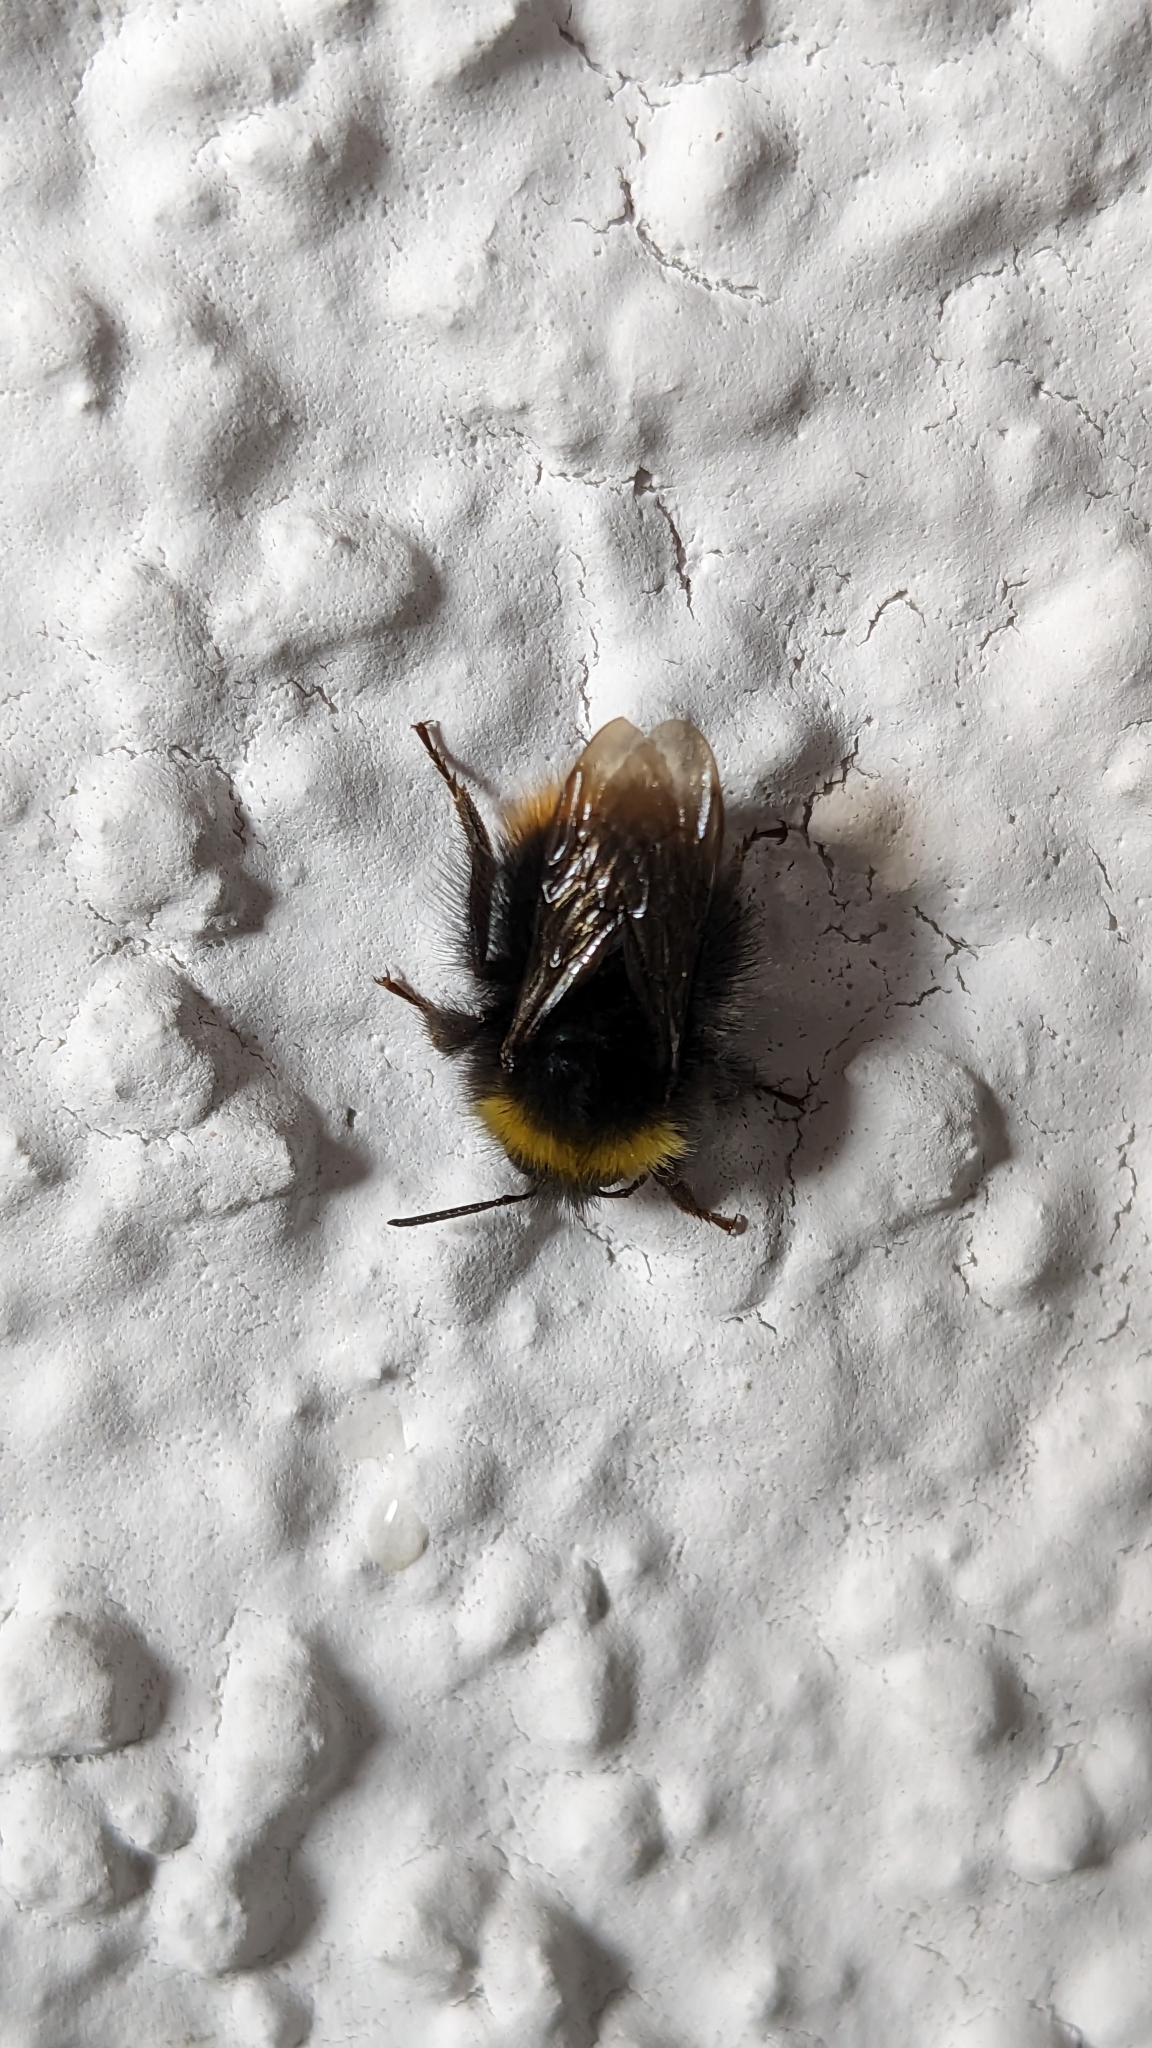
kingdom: Animalia
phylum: Arthropoda
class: Insecta
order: Hymenoptera
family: Apidae
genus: Bombus
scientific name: Bombus pratorum
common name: Early humble-bee
